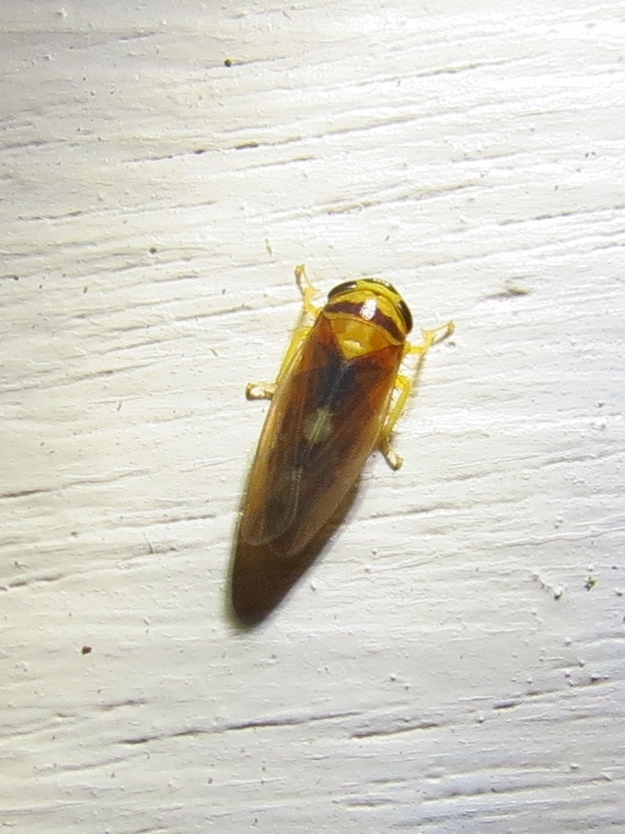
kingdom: Animalia
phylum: Arthropoda
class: Insecta
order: Hemiptera
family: Cicadellidae
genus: Eutettix
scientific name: Eutettix pictus
